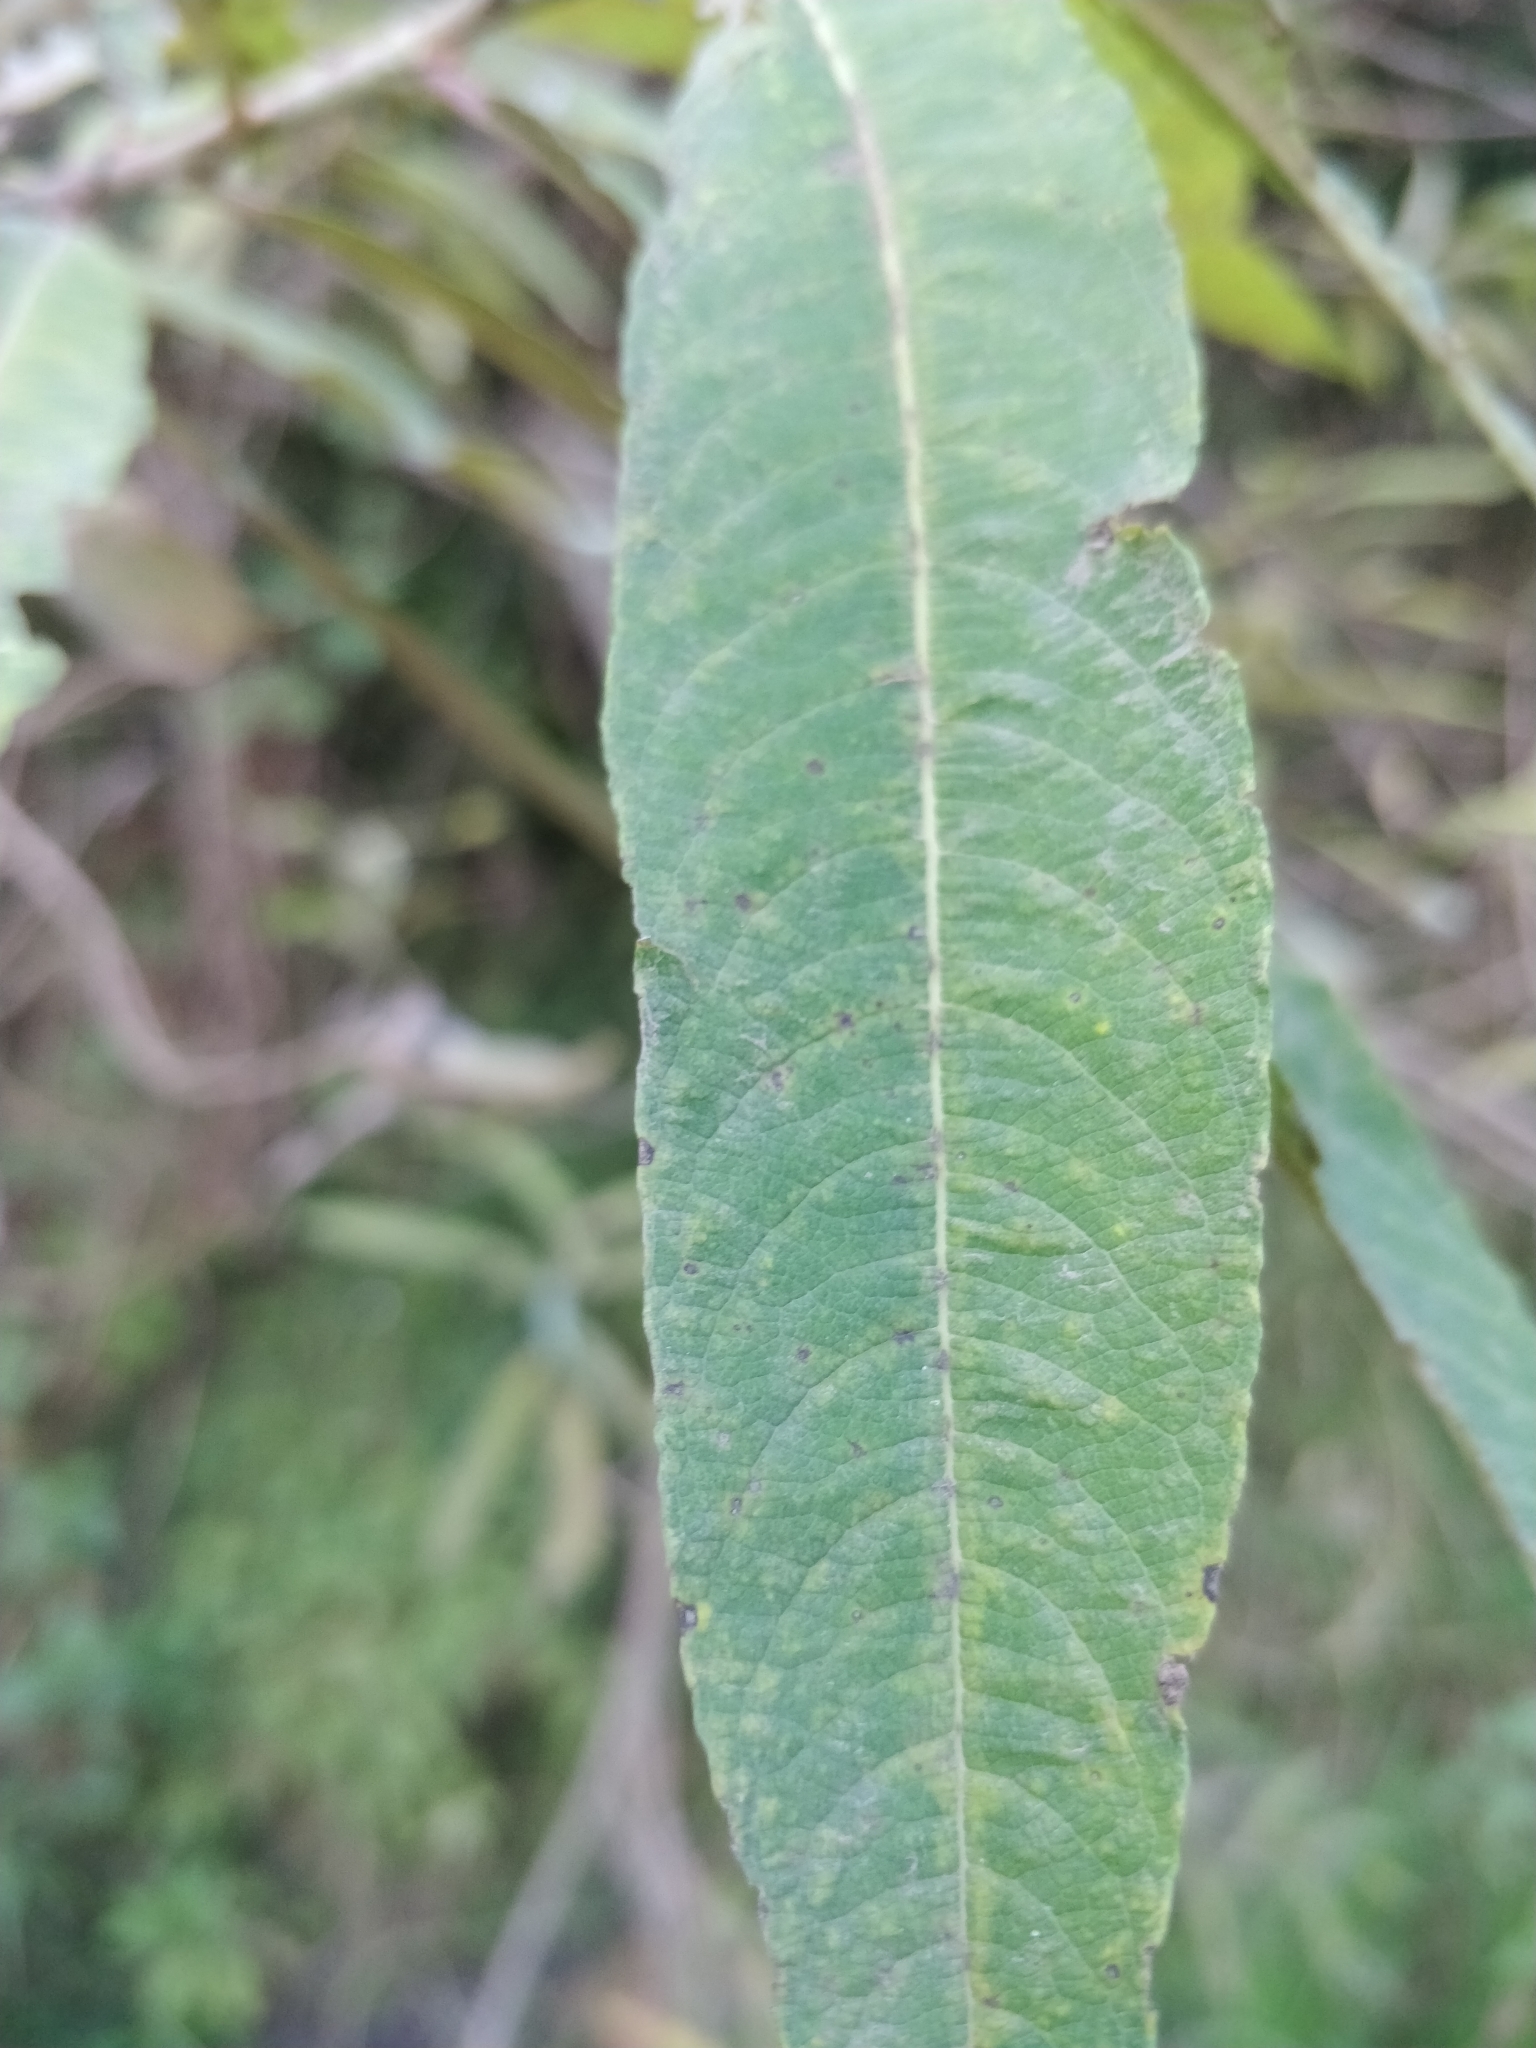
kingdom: Plantae
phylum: Tracheophyta
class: Magnoliopsida
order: Malpighiales
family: Salicaceae
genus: Salix
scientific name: Salix canariensis
